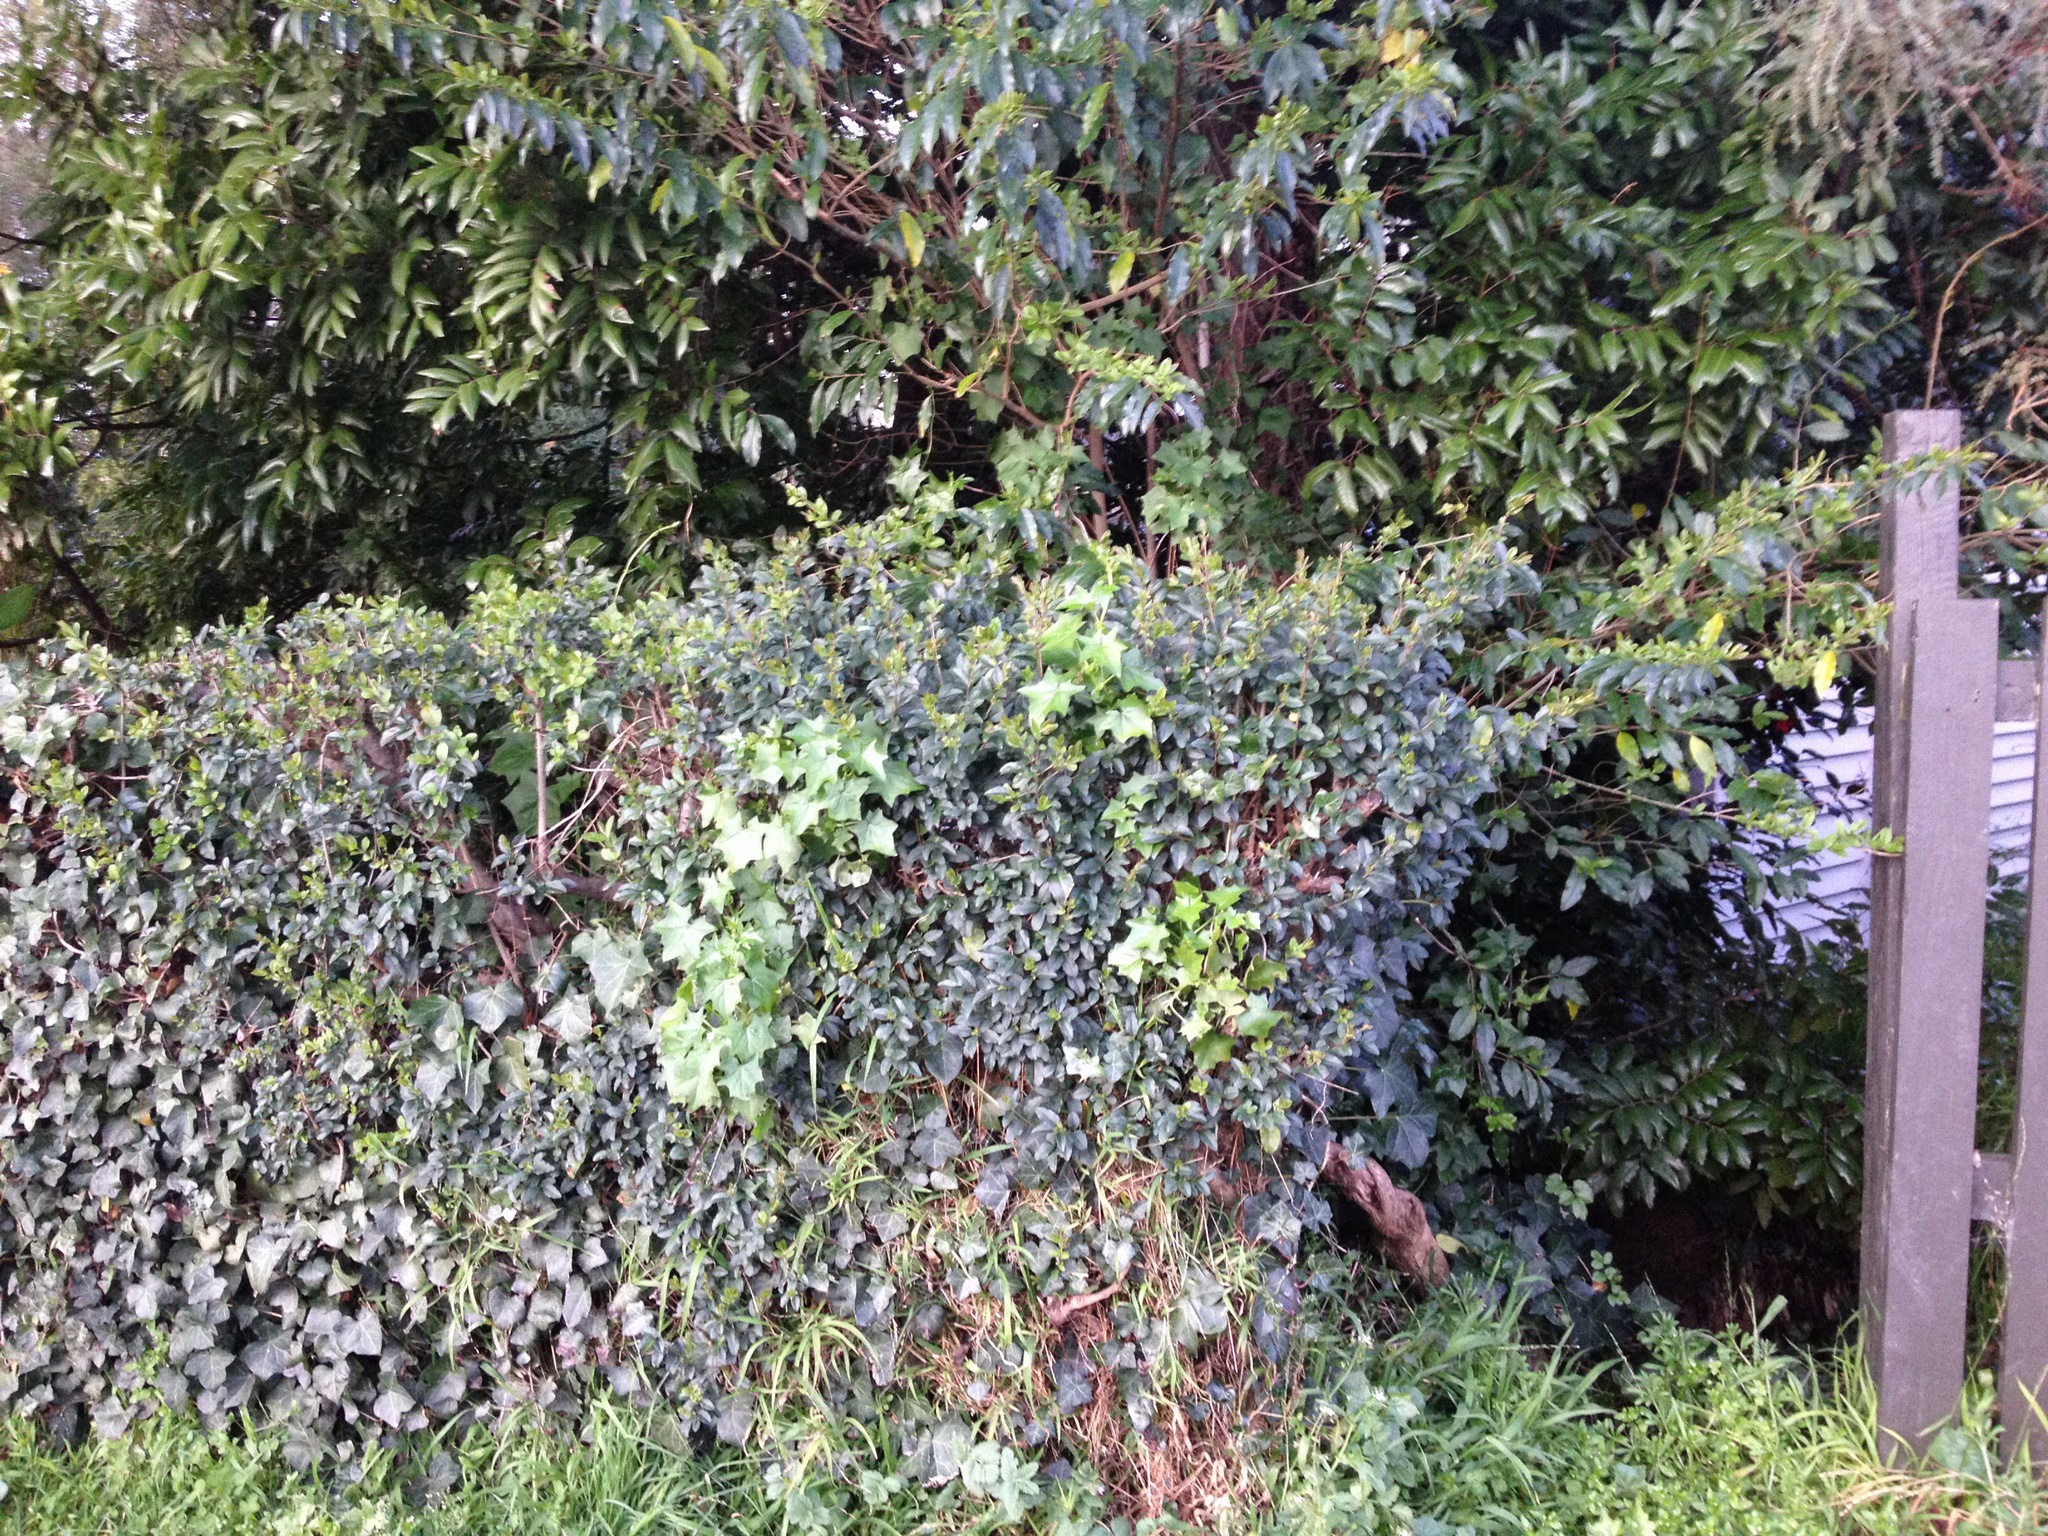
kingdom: Plantae
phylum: Tracheophyta
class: Magnoliopsida
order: Asterales
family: Asteraceae
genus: Delairea
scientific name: Delairea odorata
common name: Cape-ivy
